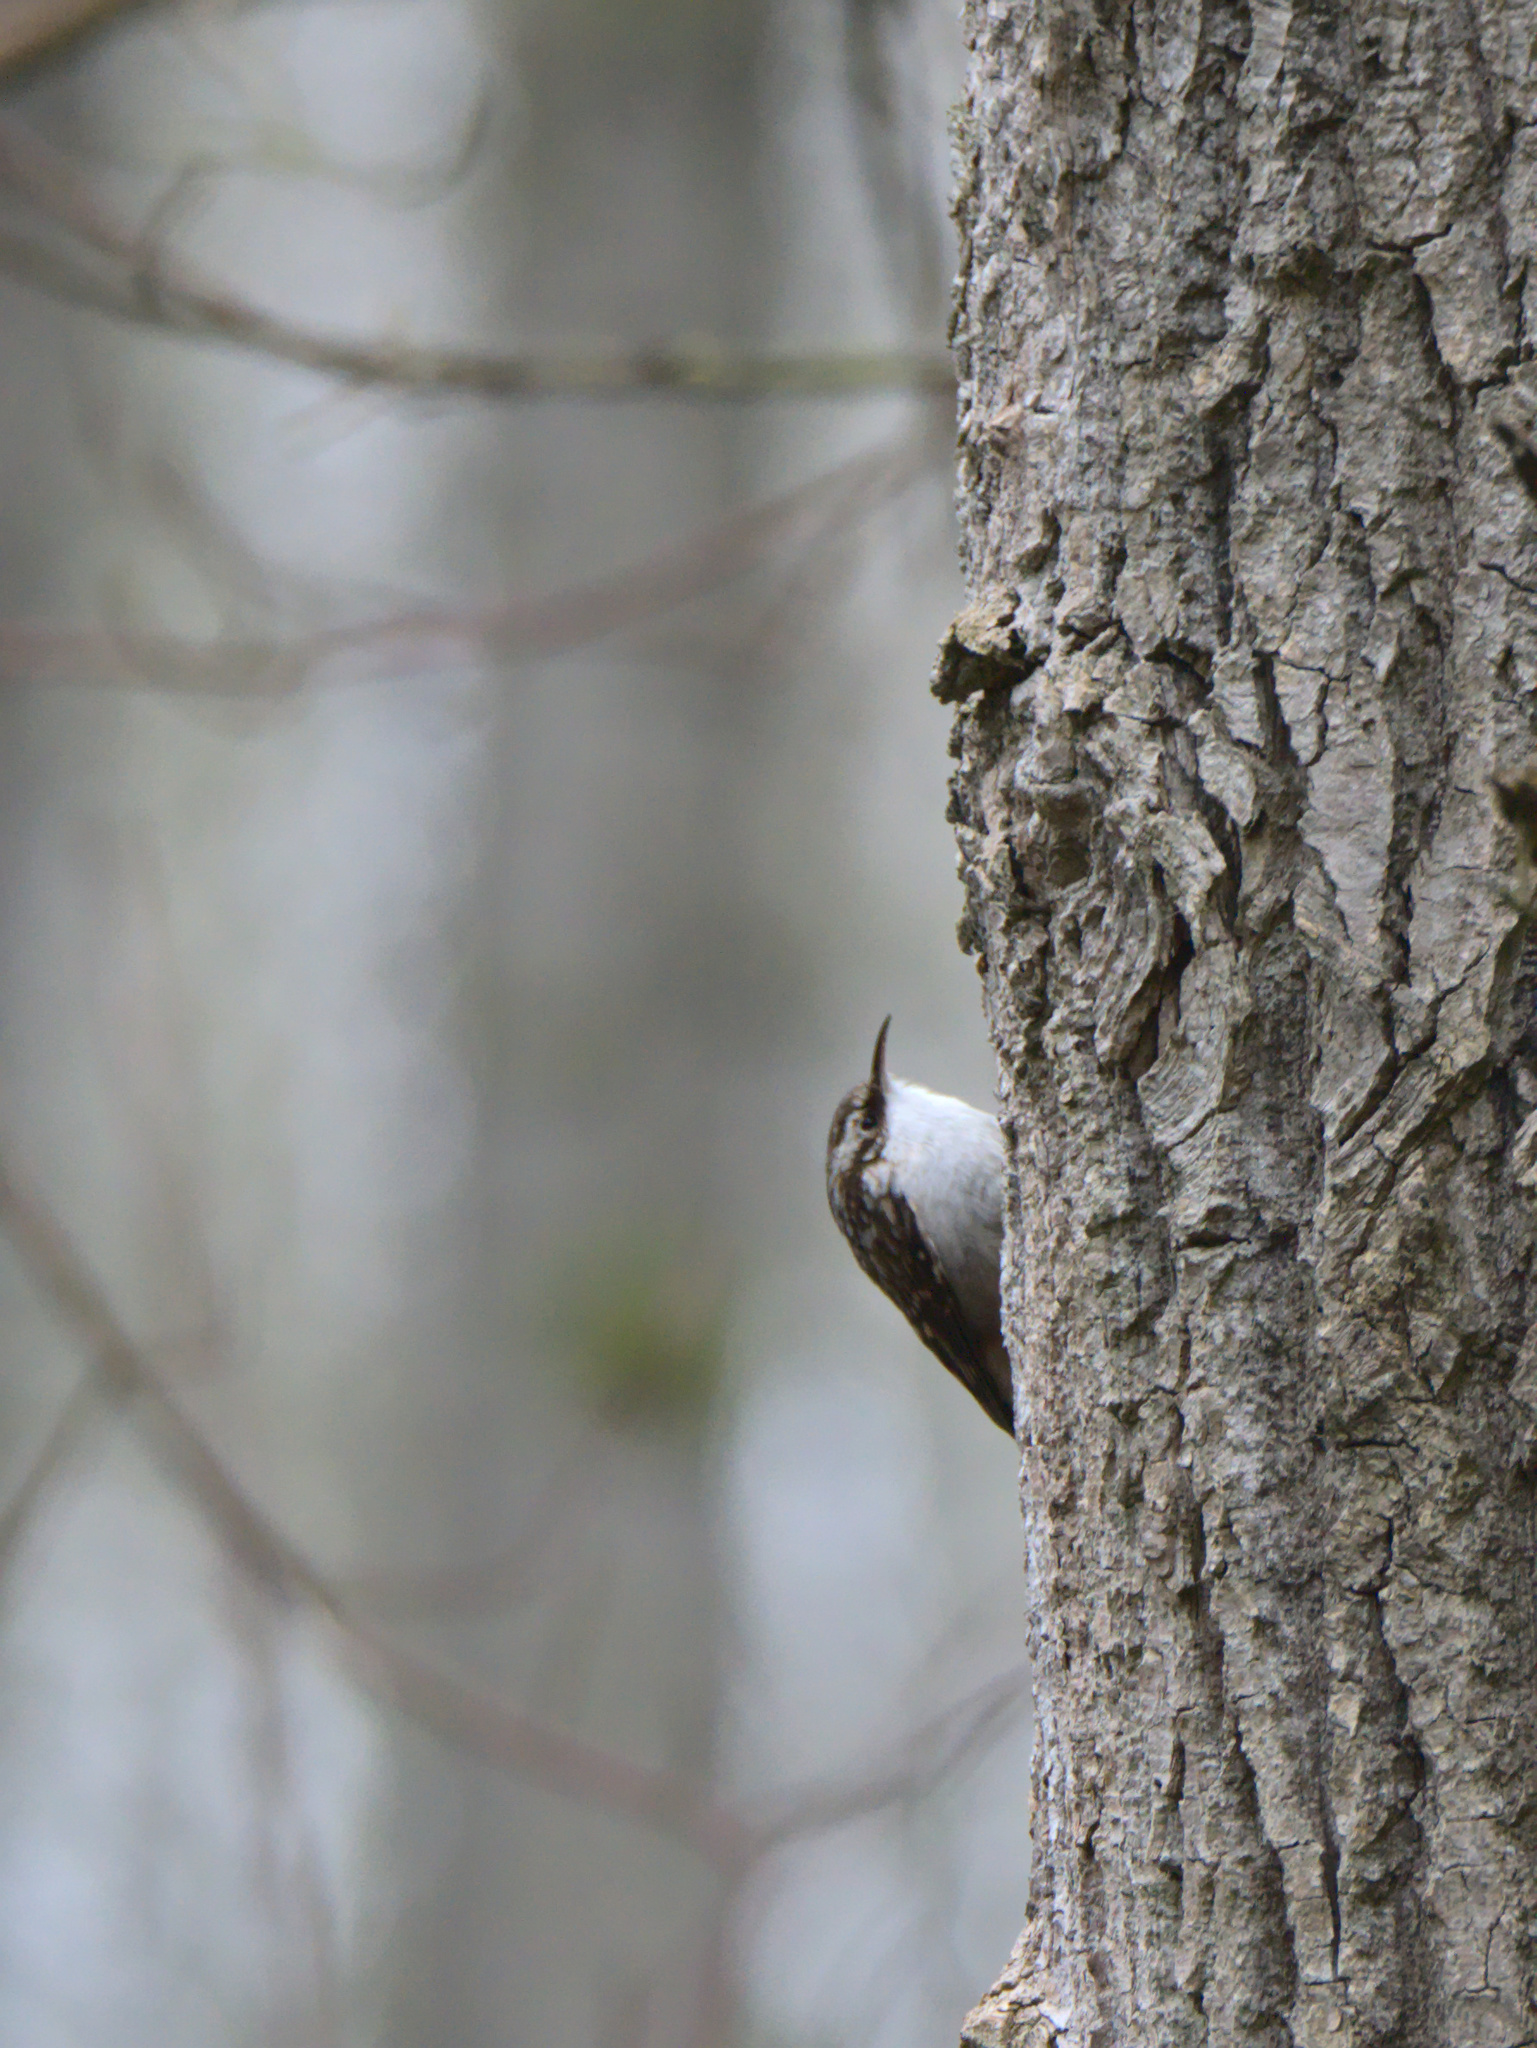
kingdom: Animalia
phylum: Chordata
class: Aves
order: Passeriformes
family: Certhiidae
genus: Certhia
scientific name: Certhia americana
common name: Brown creeper
